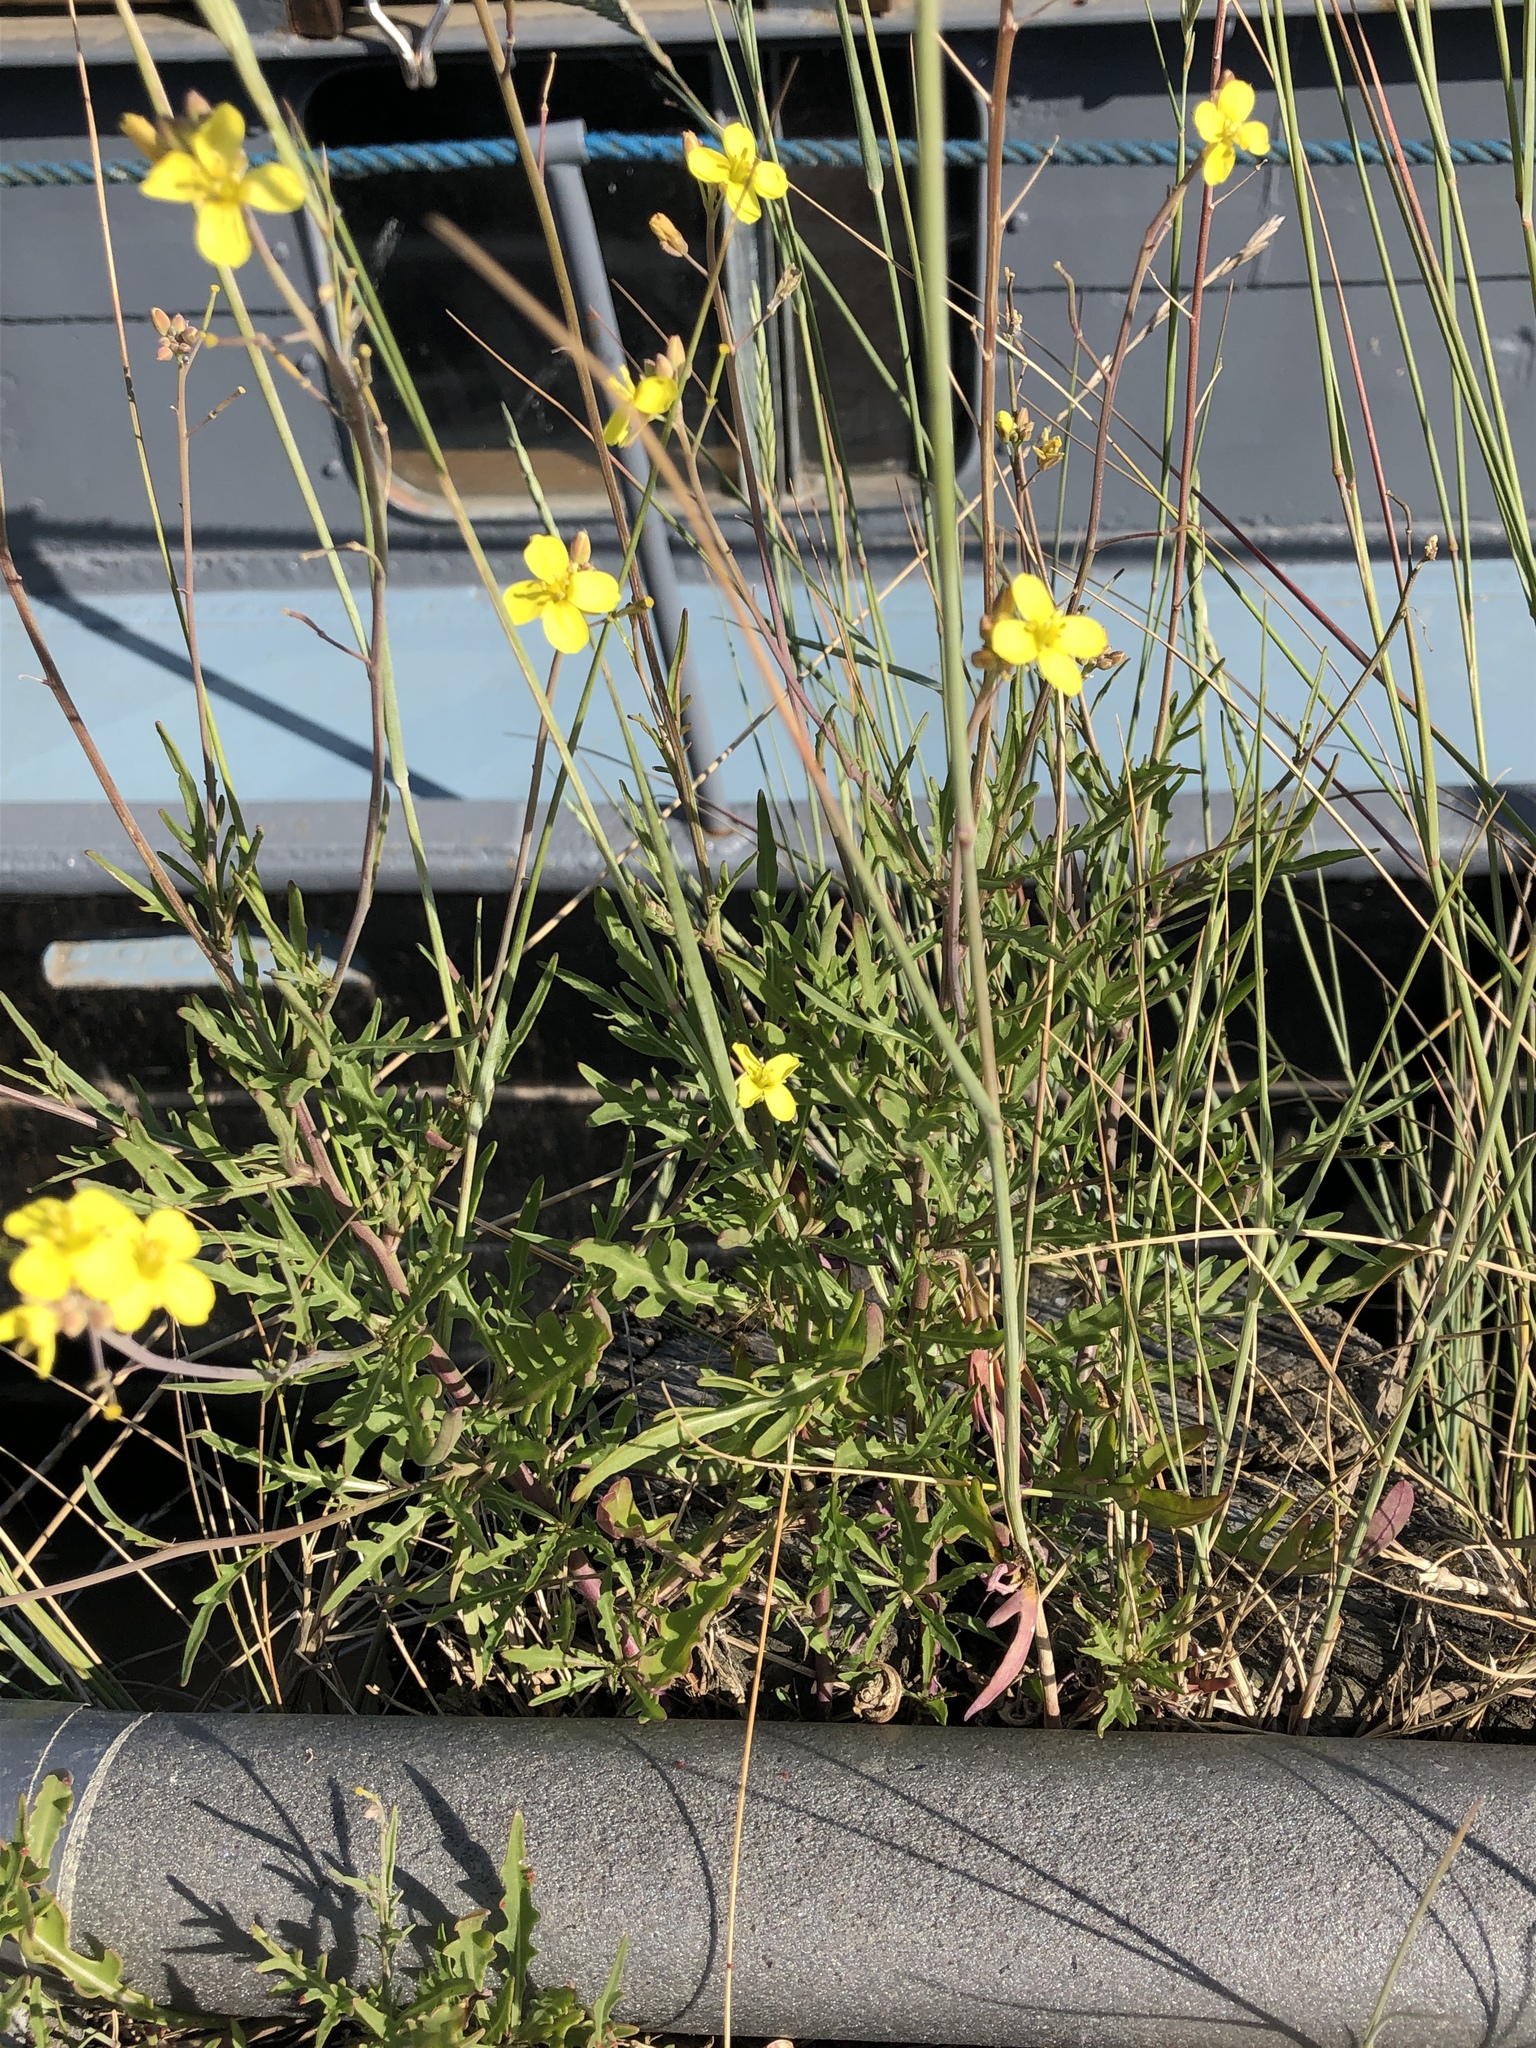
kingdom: Plantae
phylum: Tracheophyta
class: Magnoliopsida
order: Brassicales
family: Brassicaceae
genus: Diplotaxis
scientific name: Diplotaxis tenuifolia
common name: Perennial wall-rocket
